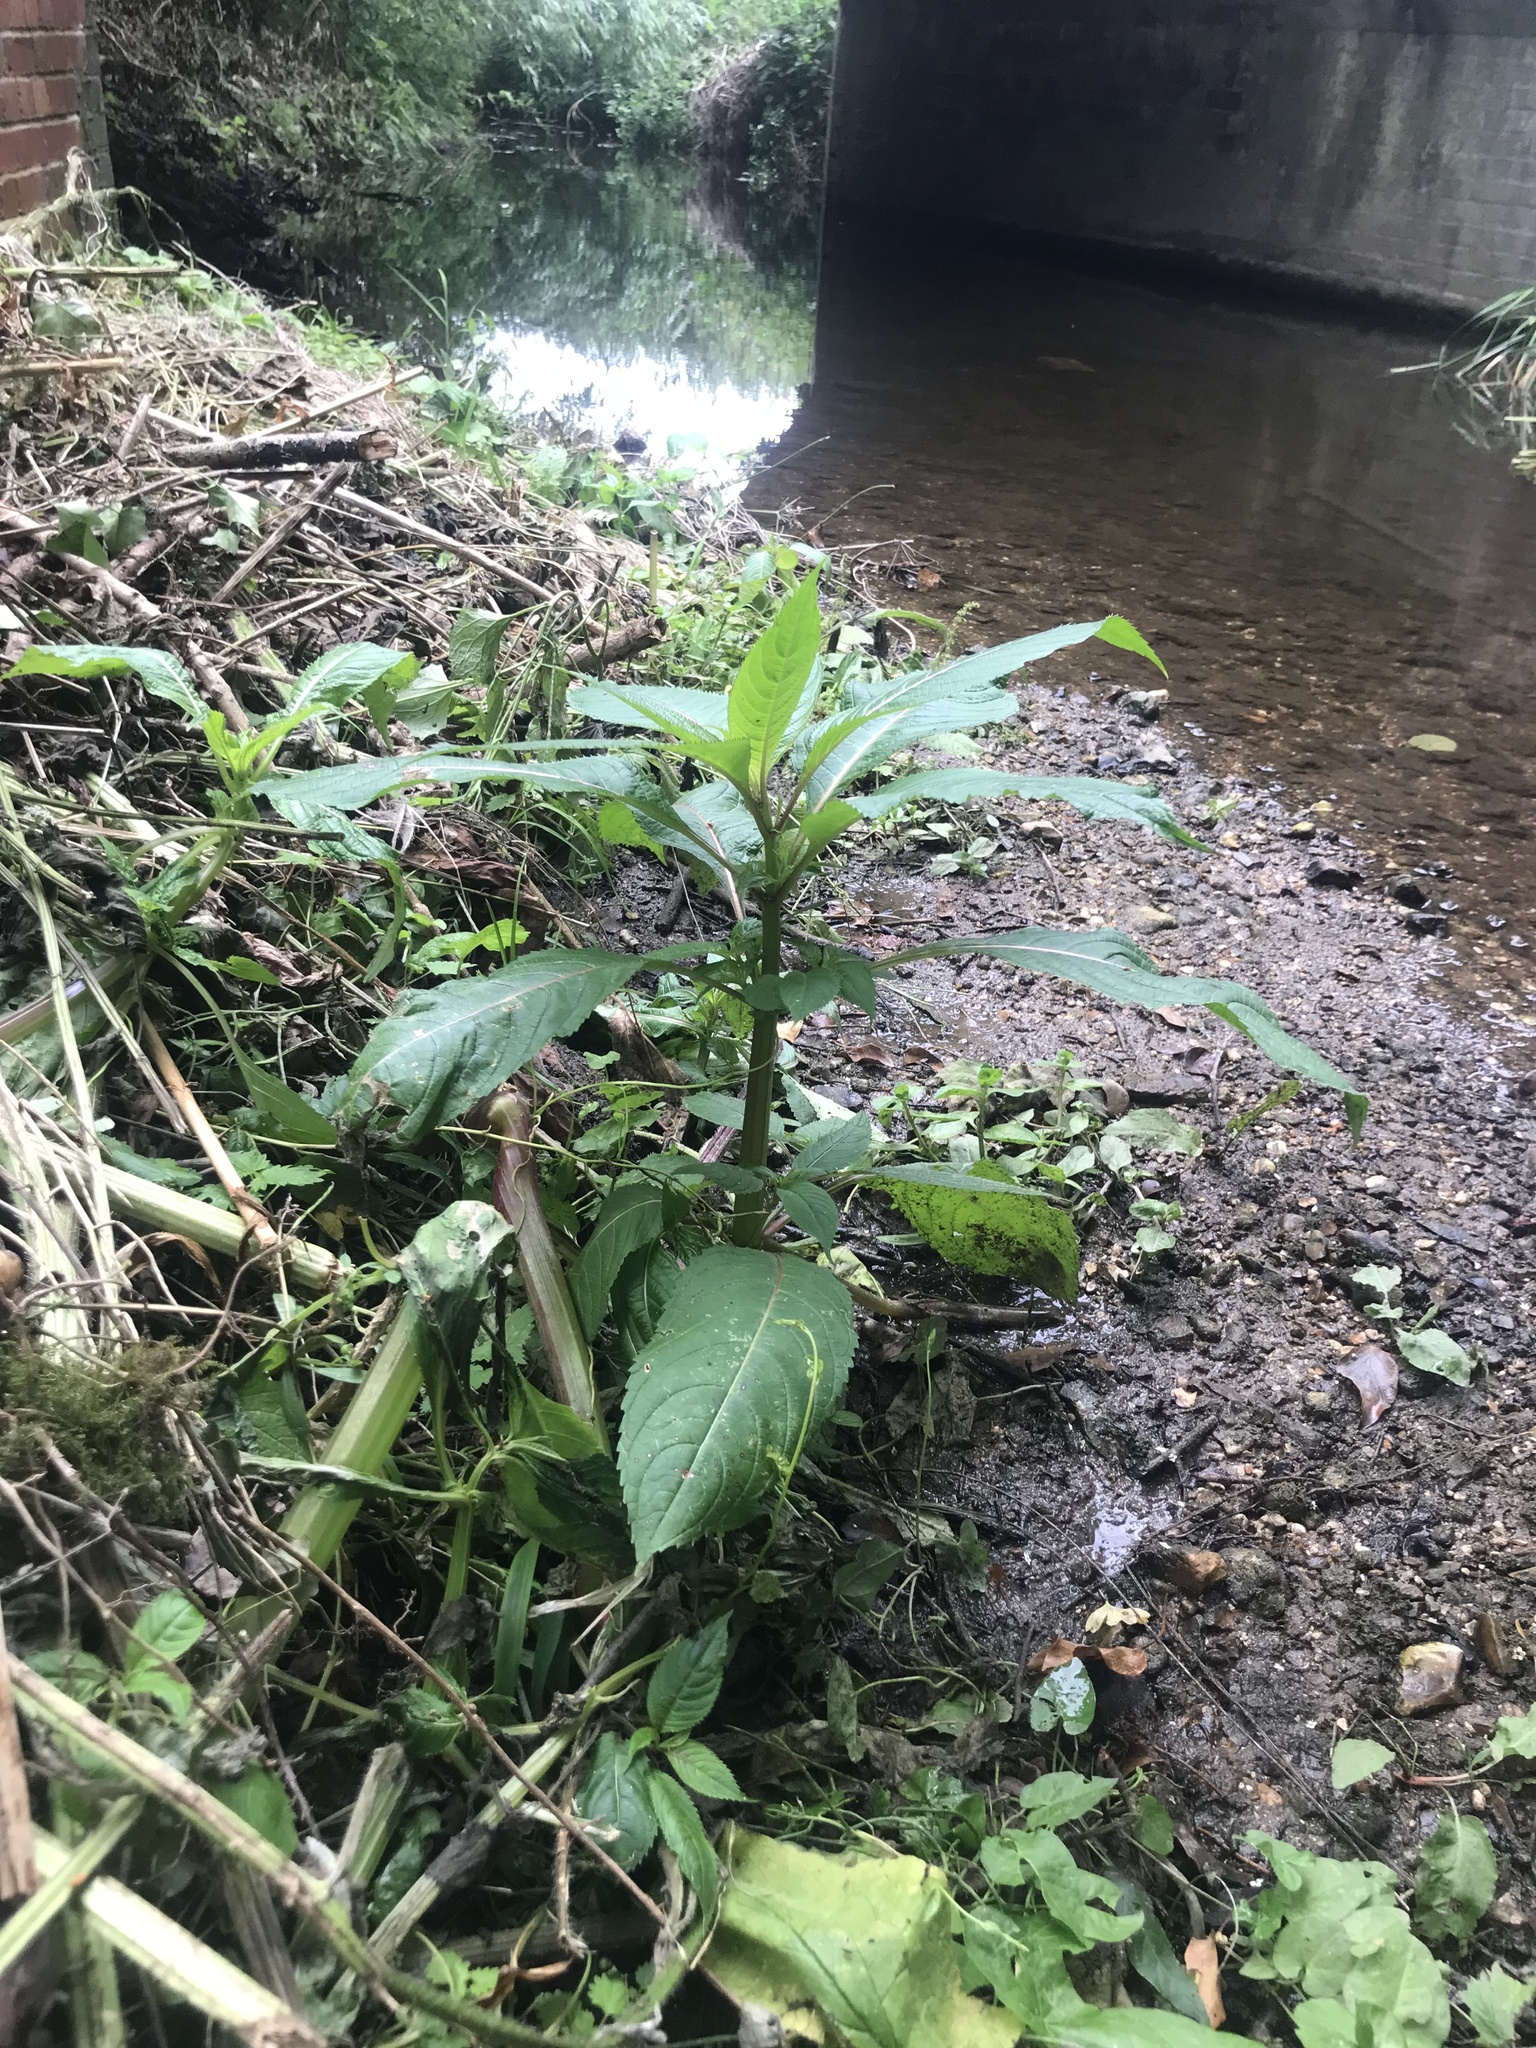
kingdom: Plantae
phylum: Tracheophyta
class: Magnoliopsida
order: Ericales
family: Balsaminaceae
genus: Impatiens
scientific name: Impatiens glandulifera
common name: Himalayan balsam
